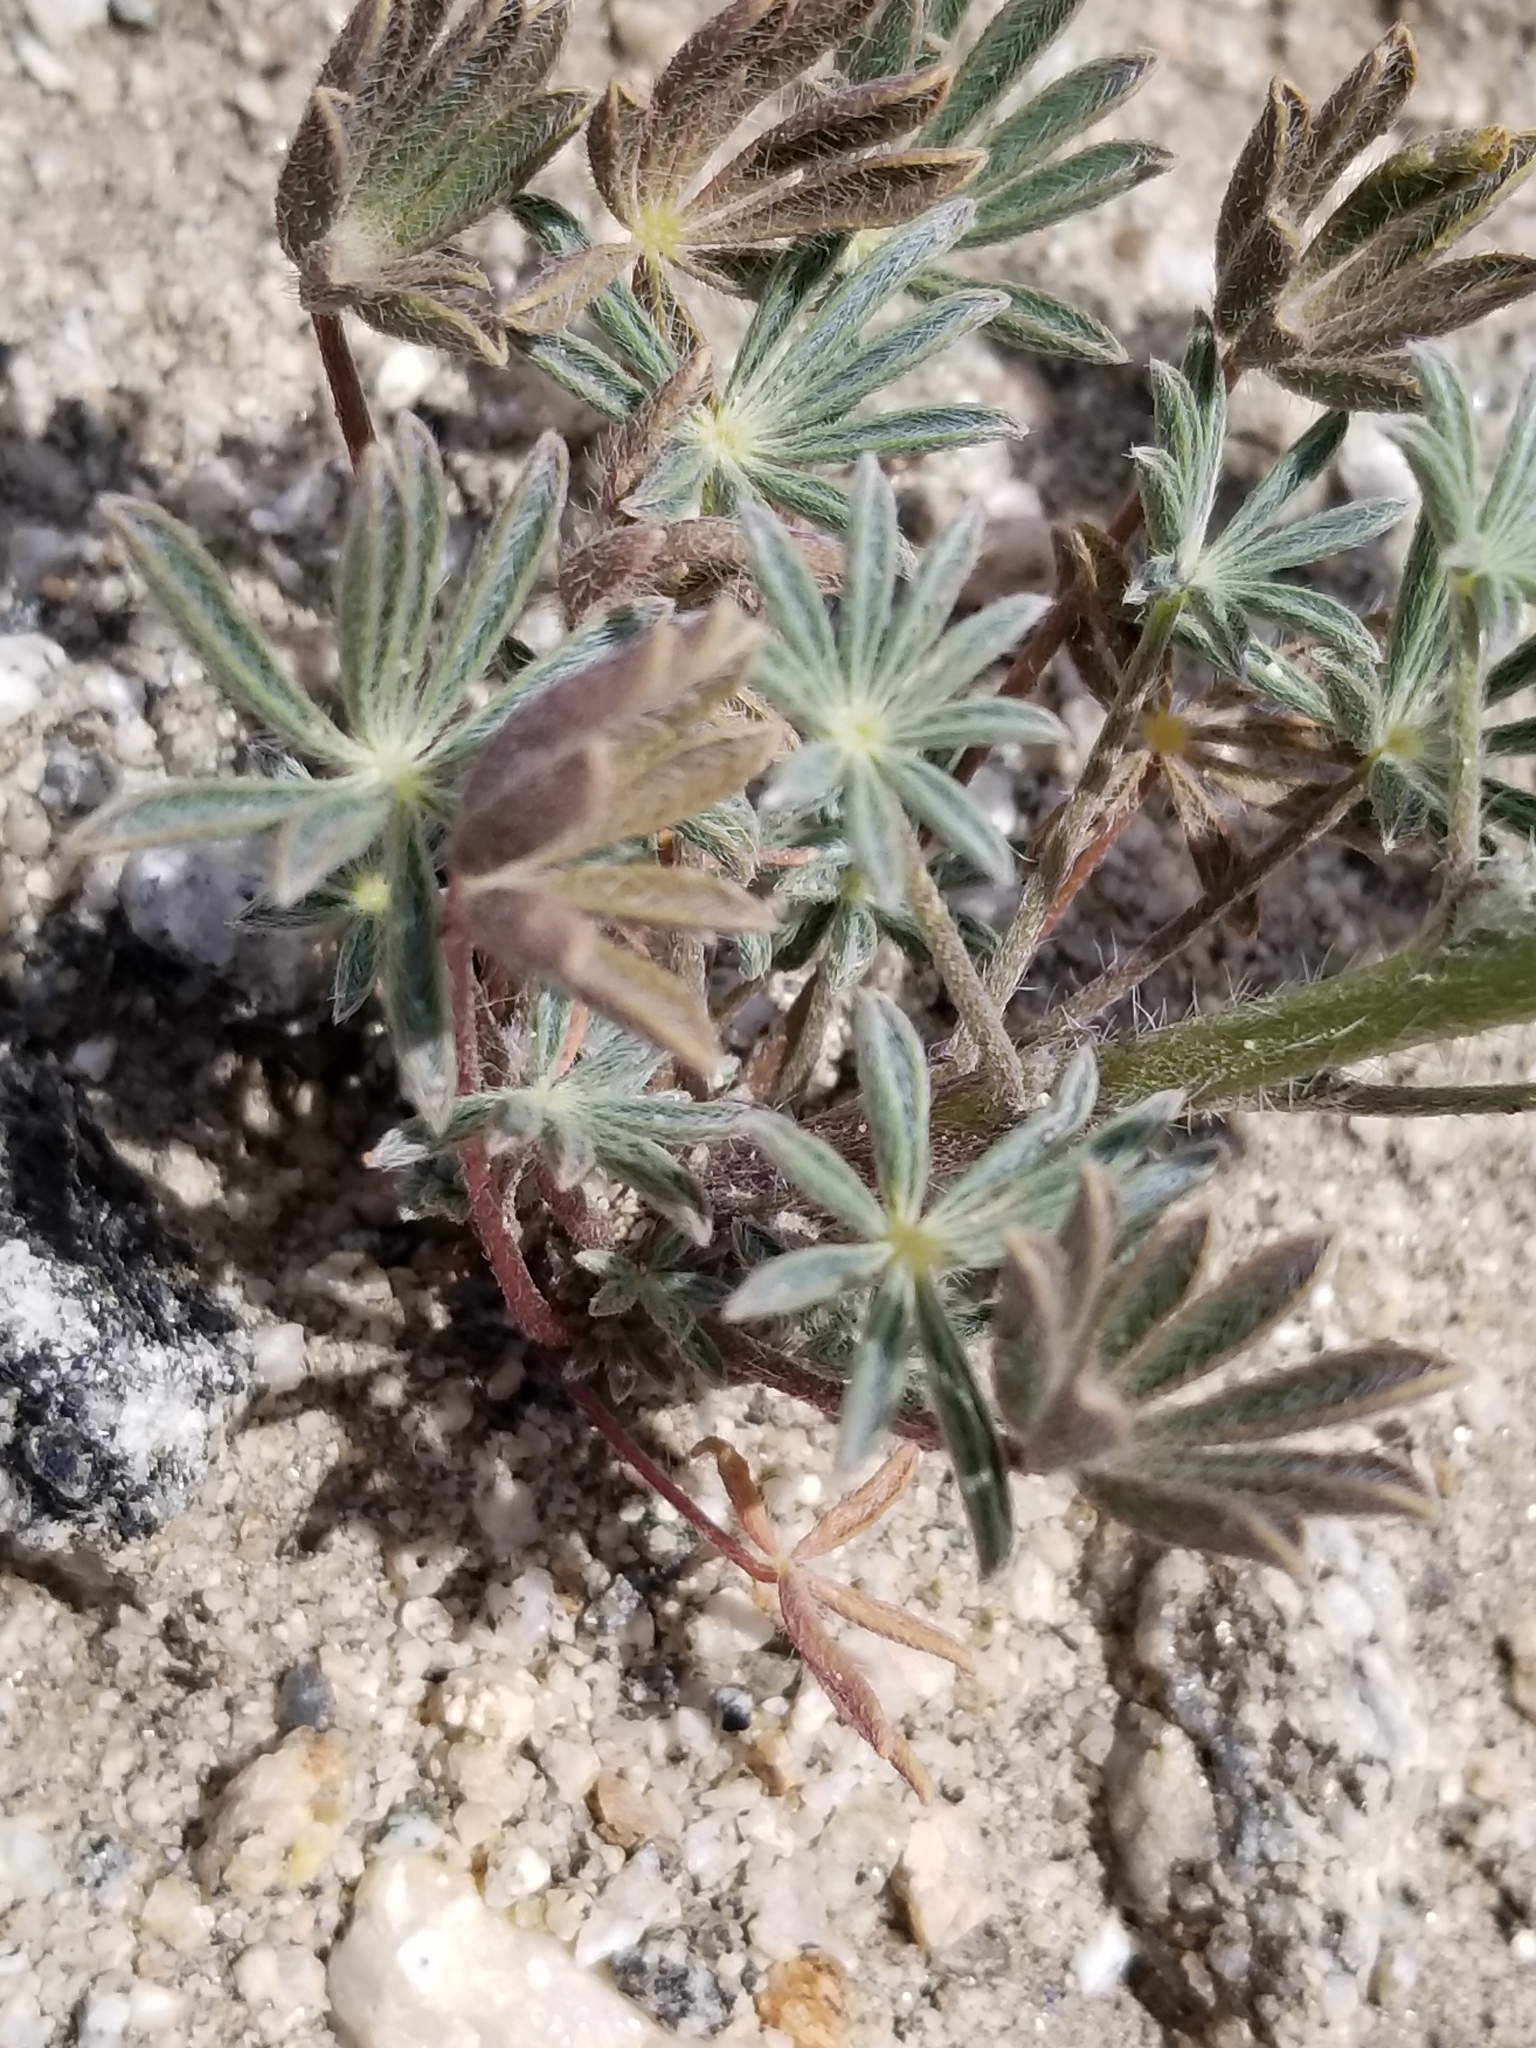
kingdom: Plantae
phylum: Tracheophyta
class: Magnoliopsida
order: Fabales
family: Fabaceae
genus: Lupinus
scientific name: Lupinus sparsiflorus
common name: Coulter's lupine
